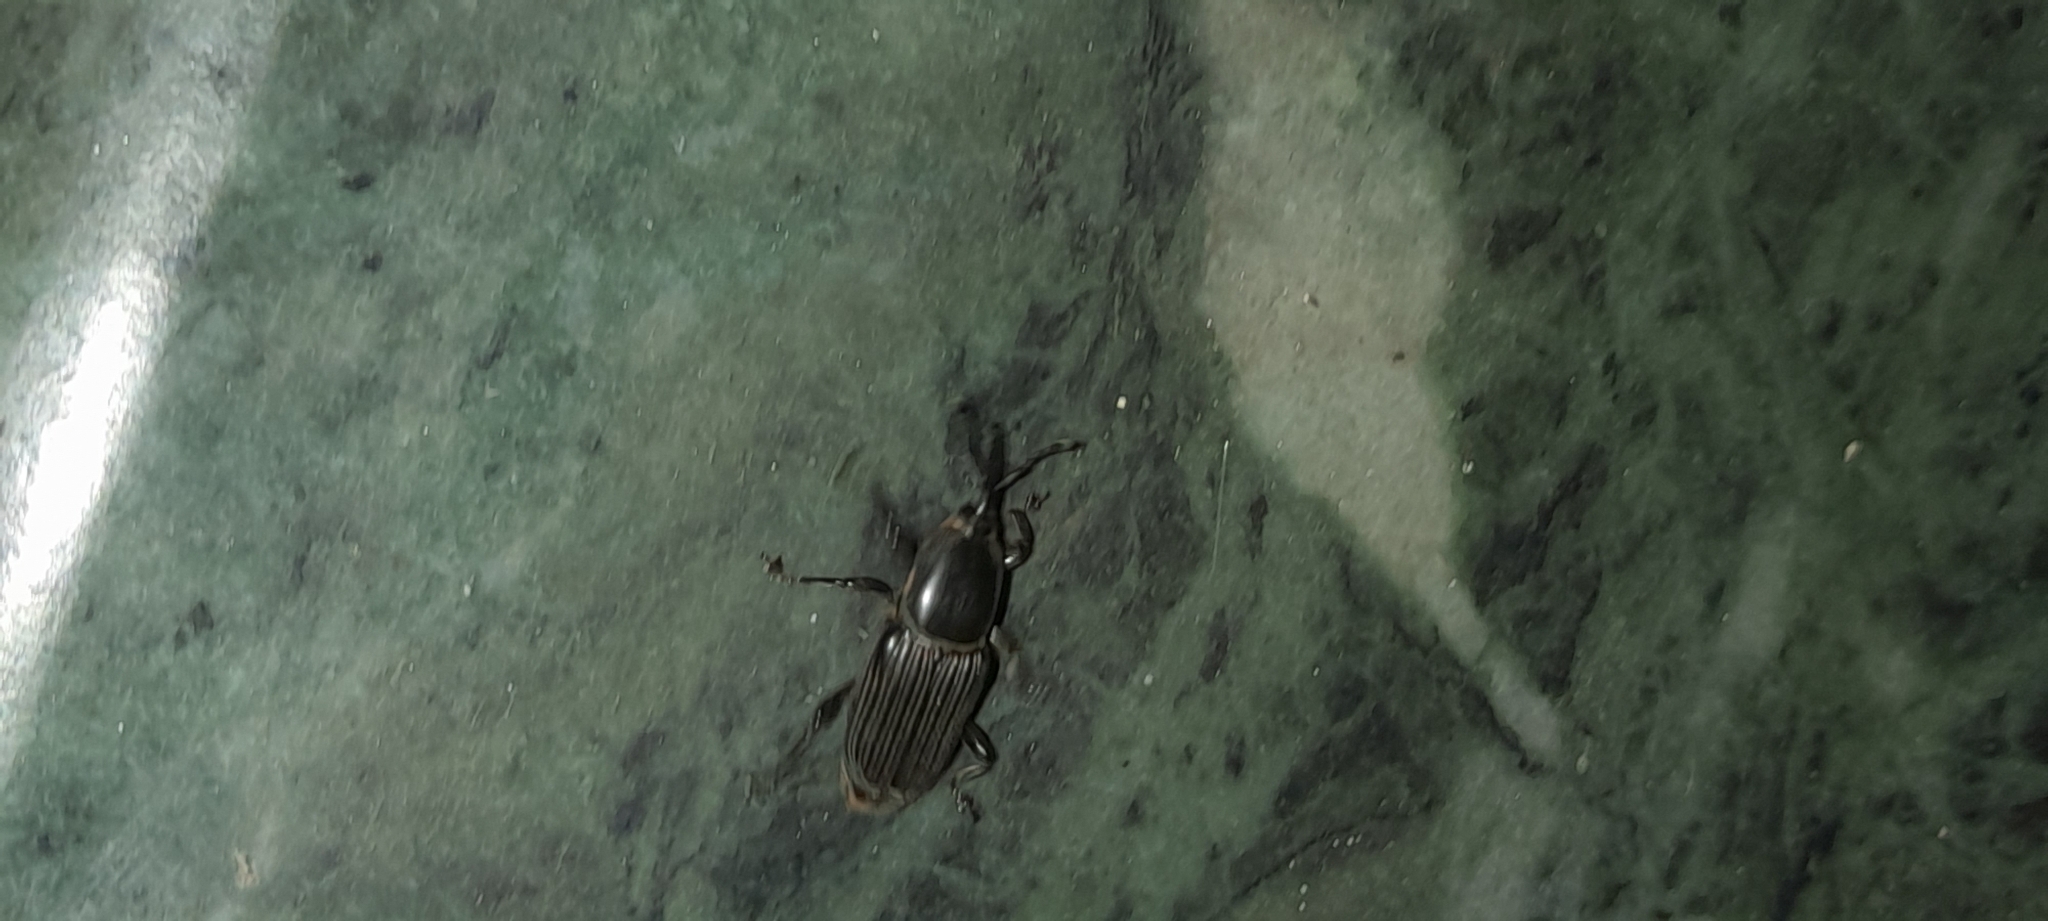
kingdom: Animalia
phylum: Arthropoda
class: Insecta
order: Coleoptera
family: Dryophthoridae
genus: Odoiporus
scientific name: Odoiporus longicollis
